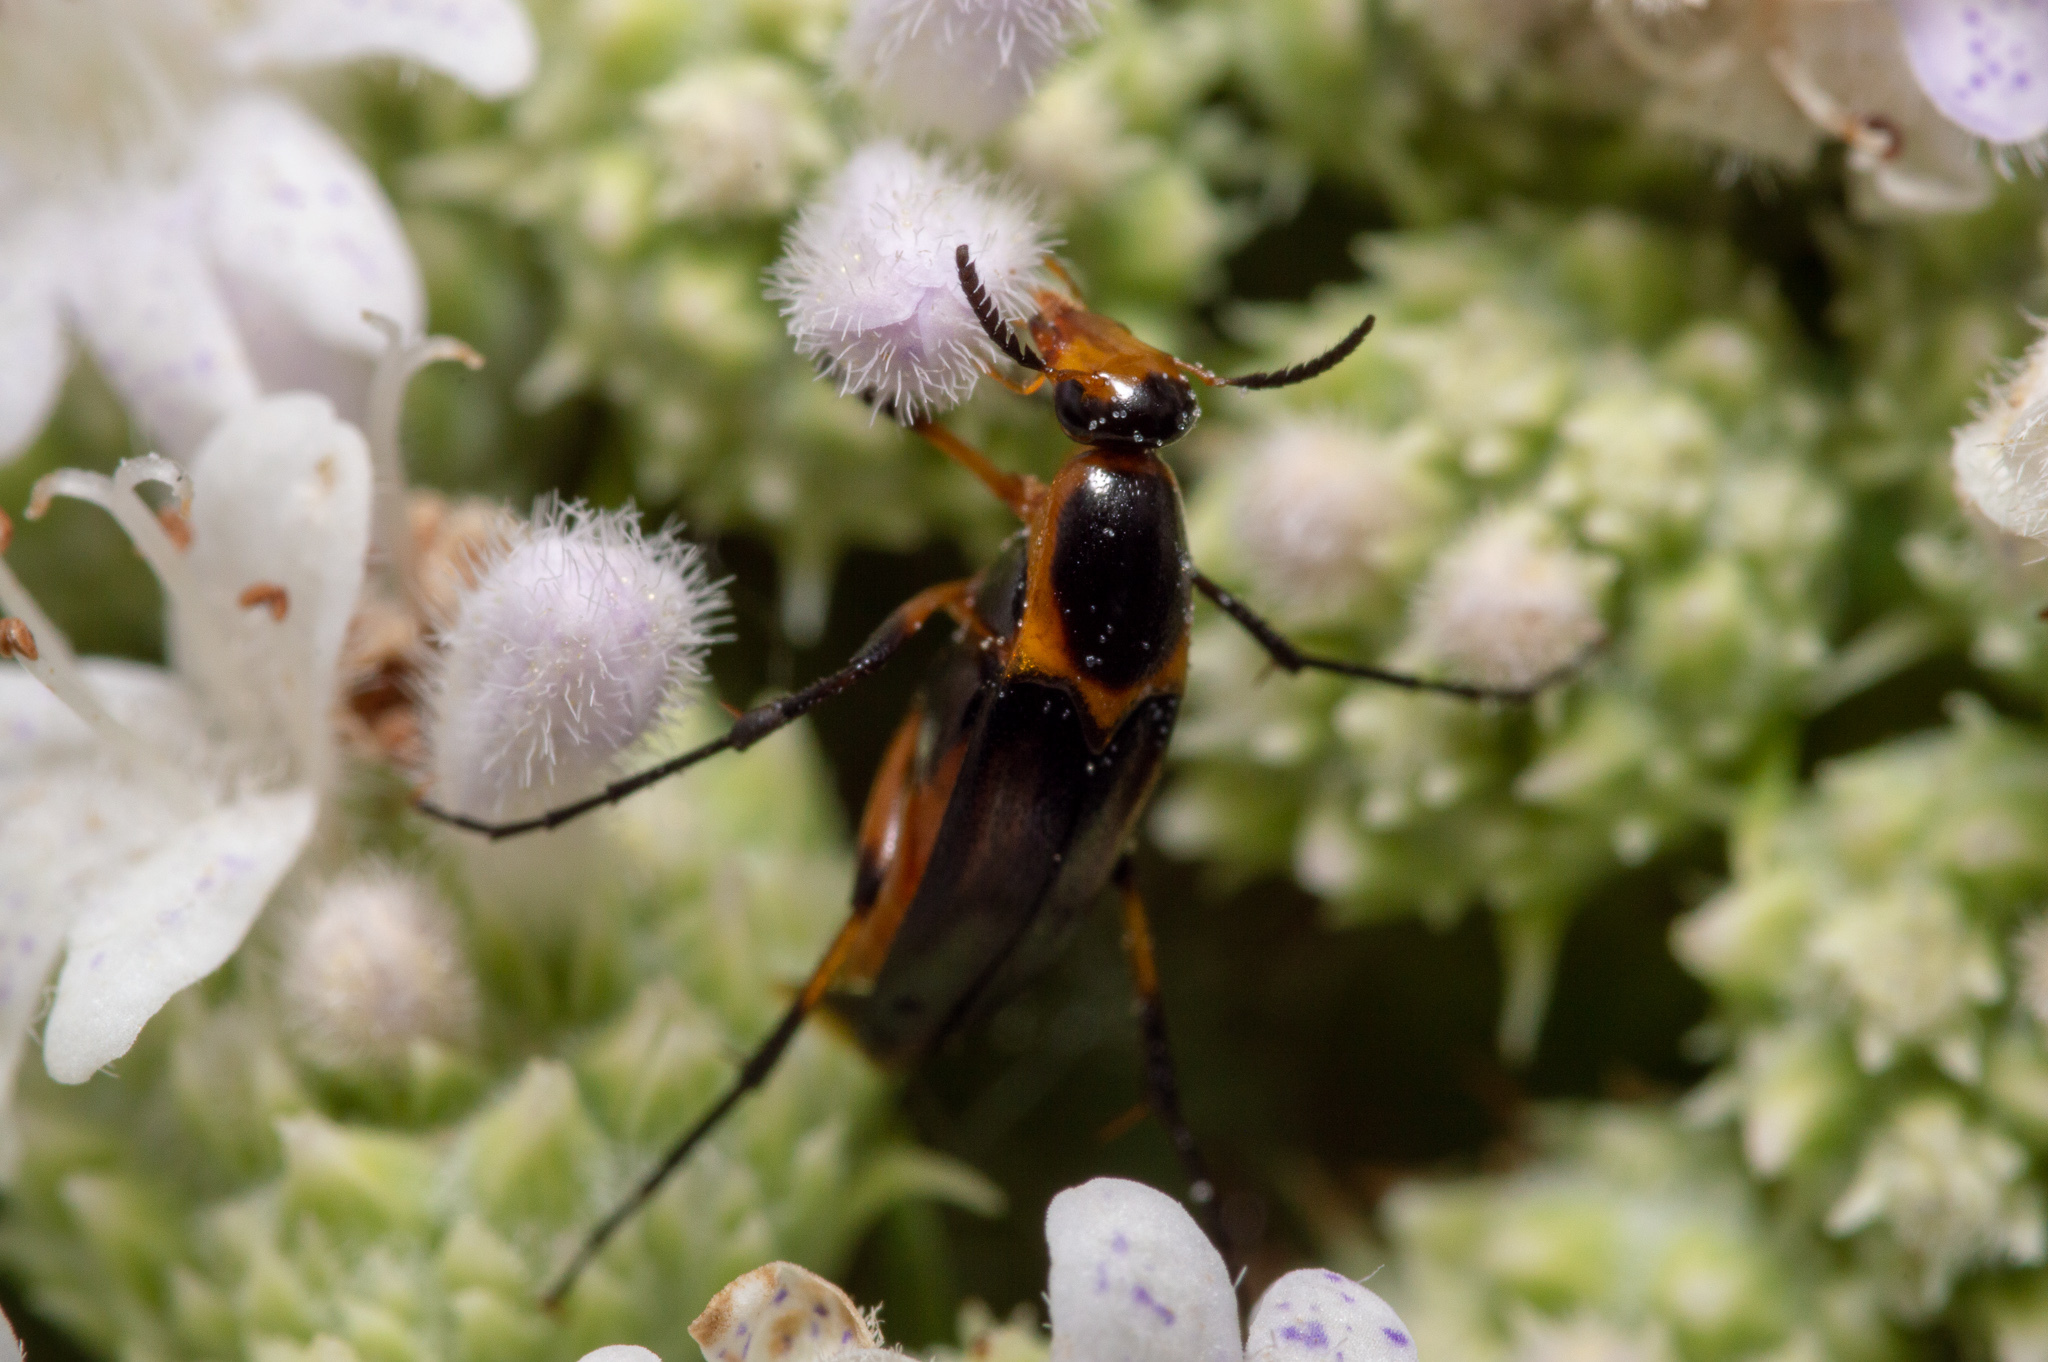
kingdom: Animalia
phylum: Arthropoda
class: Insecta
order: Coleoptera
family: Ripiphoridae
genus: Macrosiagon
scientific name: Macrosiagon limbatum
